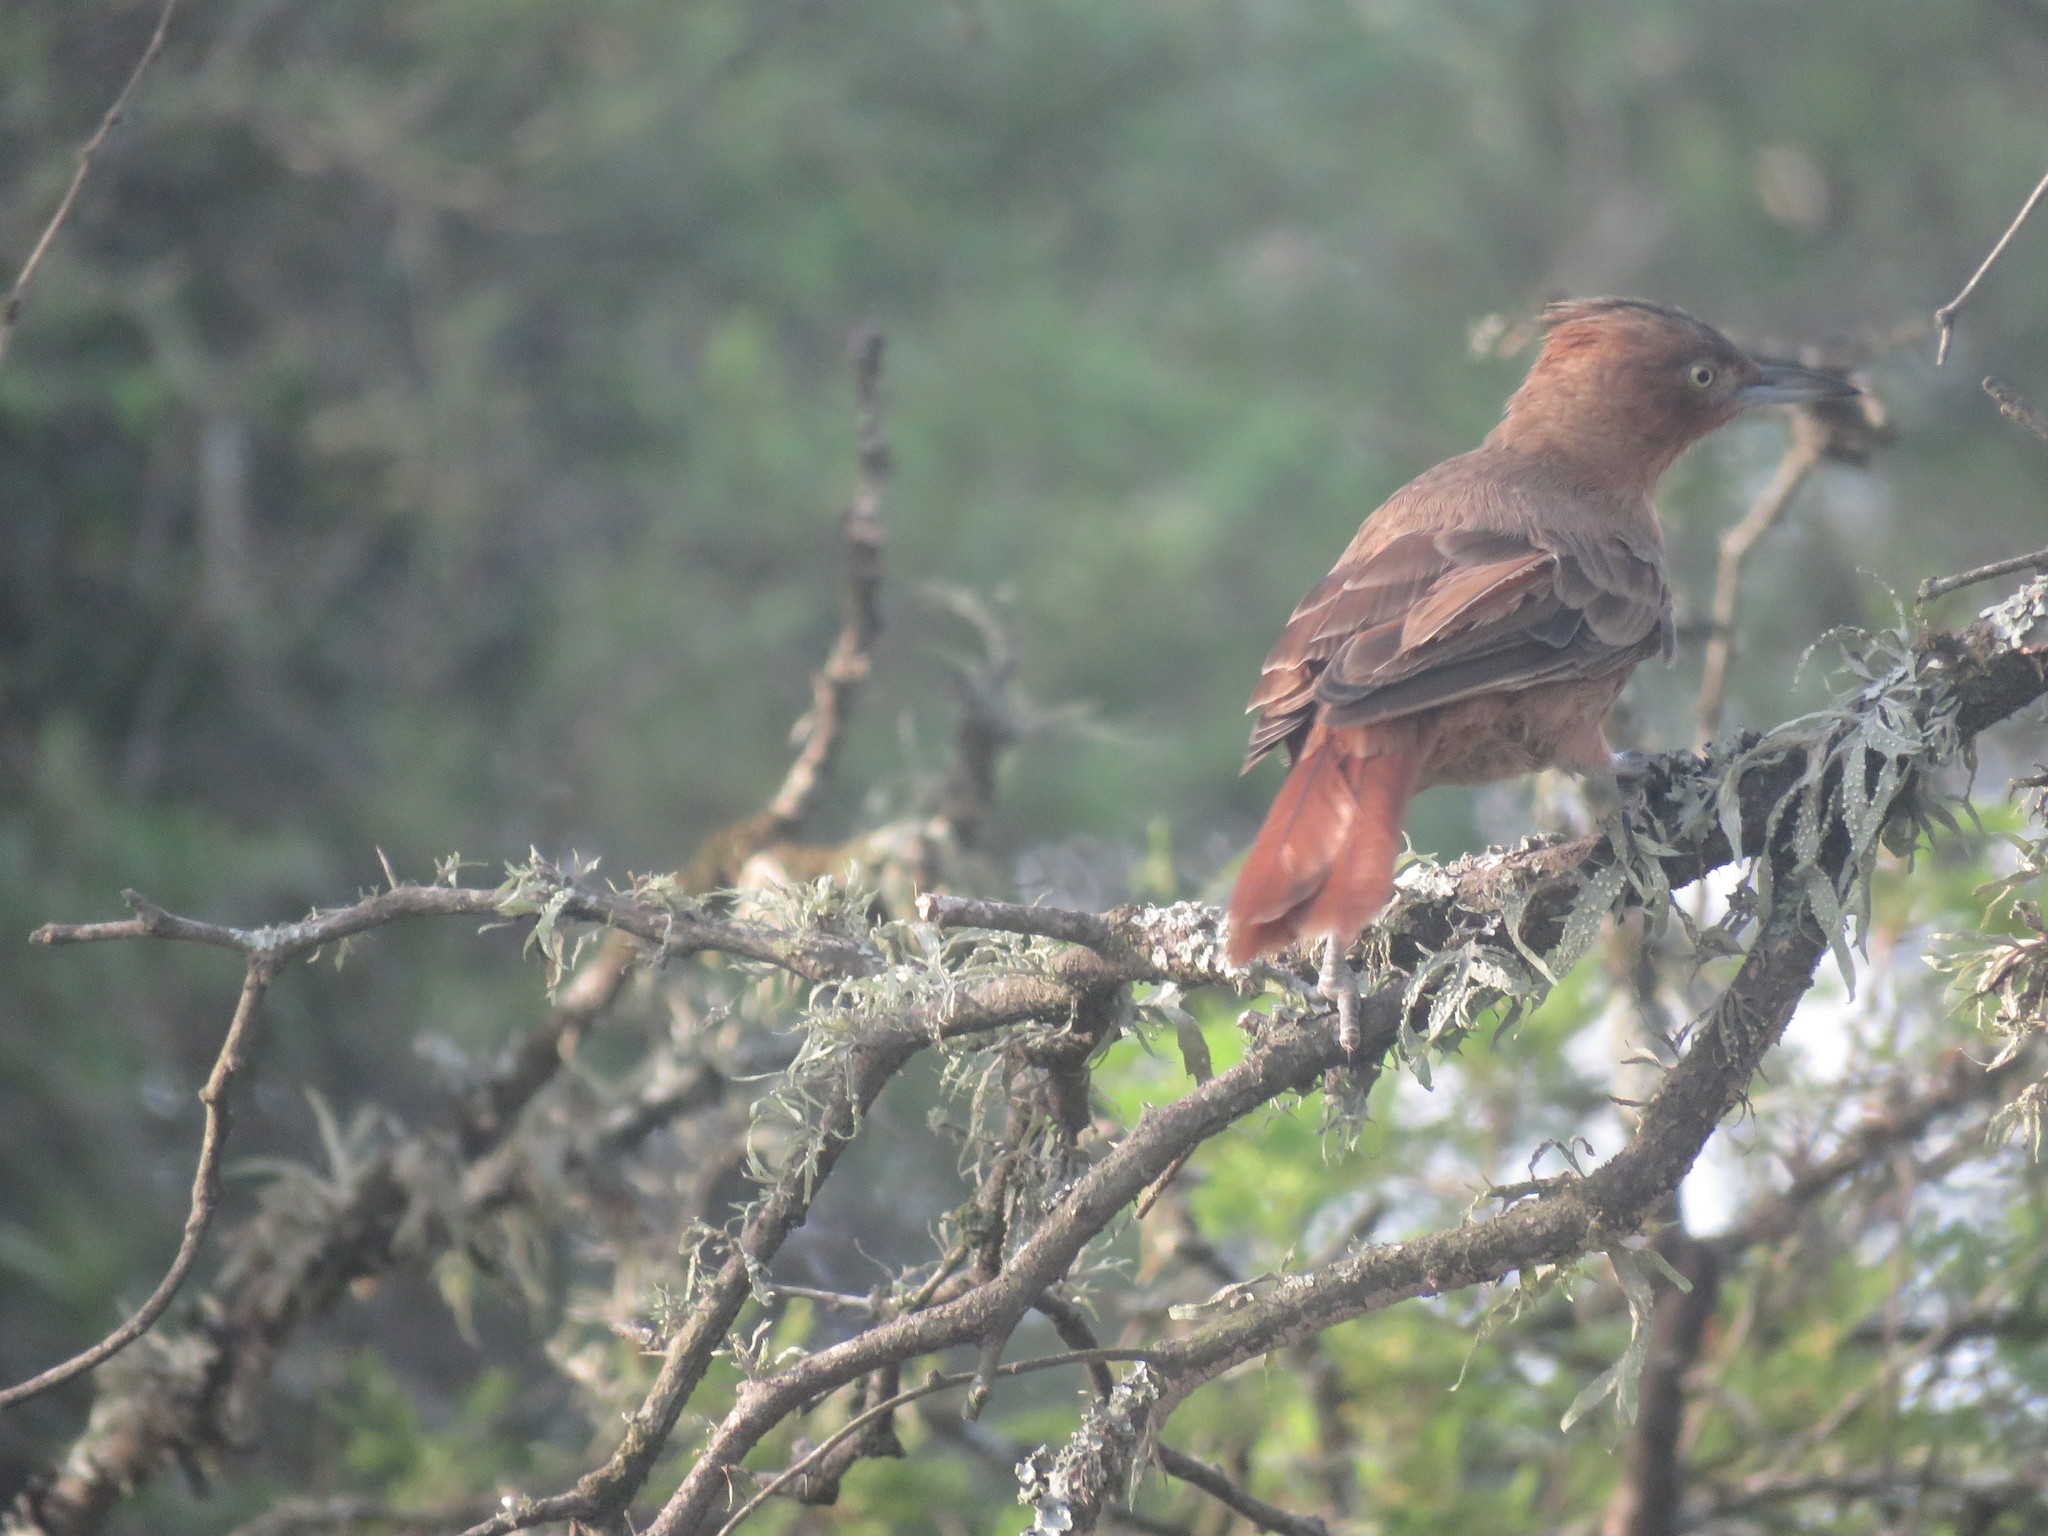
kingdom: Animalia
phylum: Chordata
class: Aves
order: Passeriformes
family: Furnariidae
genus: Pseudoseisura
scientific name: Pseudoseisura lophotes
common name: Brown cacholote
